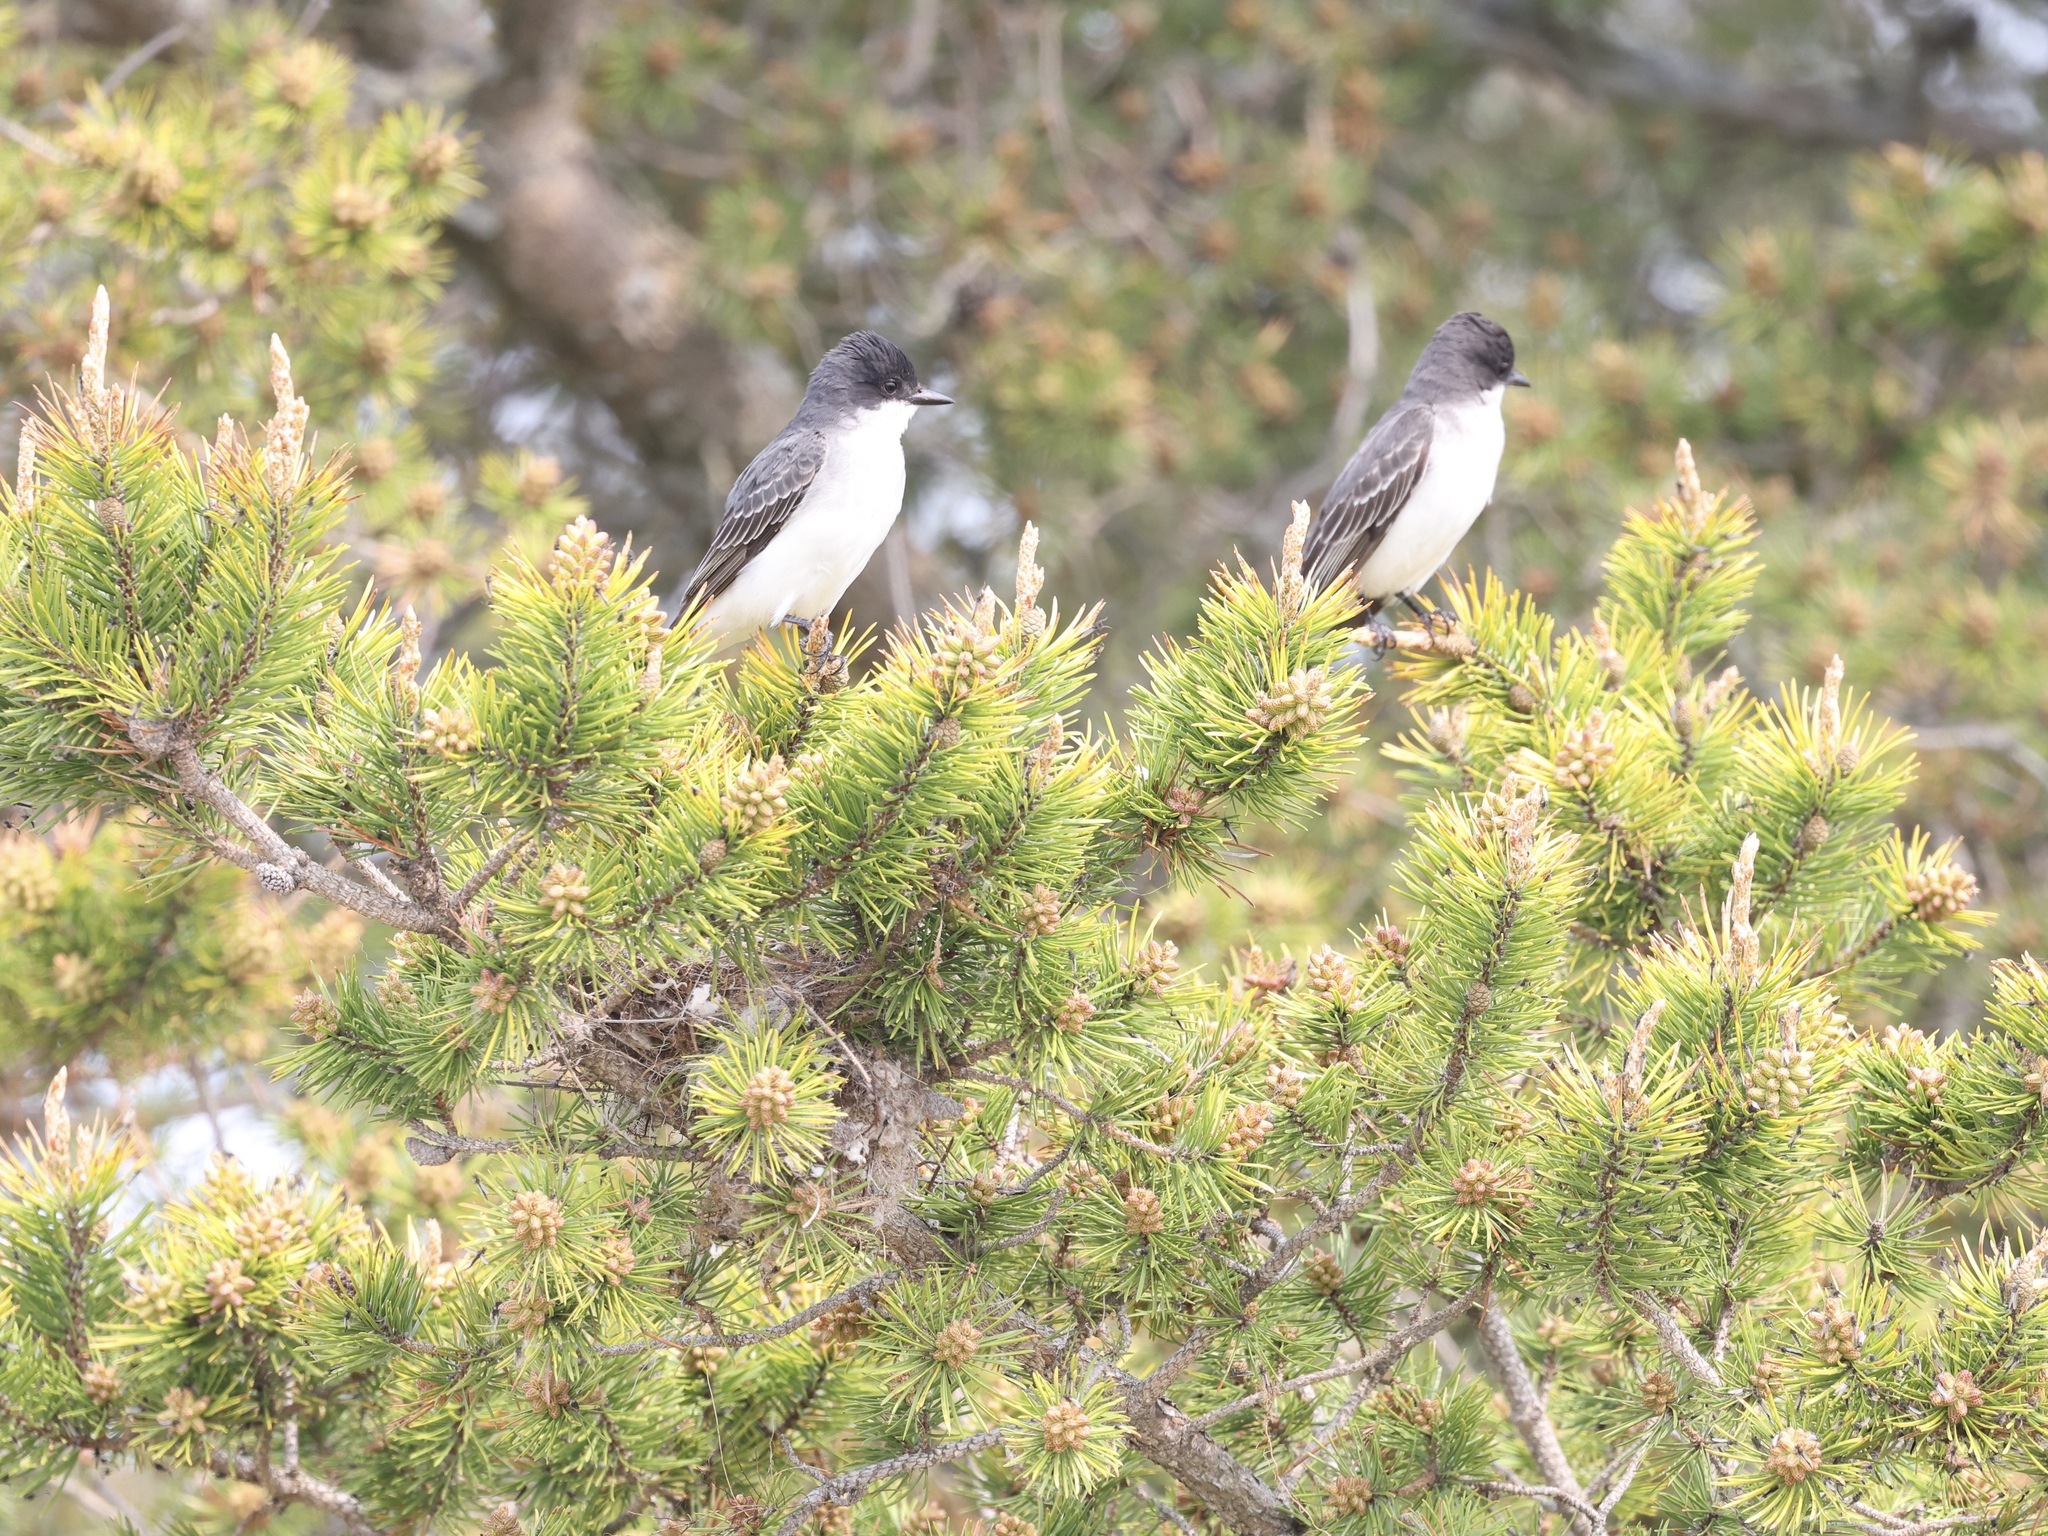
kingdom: Animalia
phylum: Chordata
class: Aves
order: Passeriformes
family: Tyrannidae
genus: Tyrannus
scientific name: Tyrannus tyrannus
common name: Eastern kingbird
